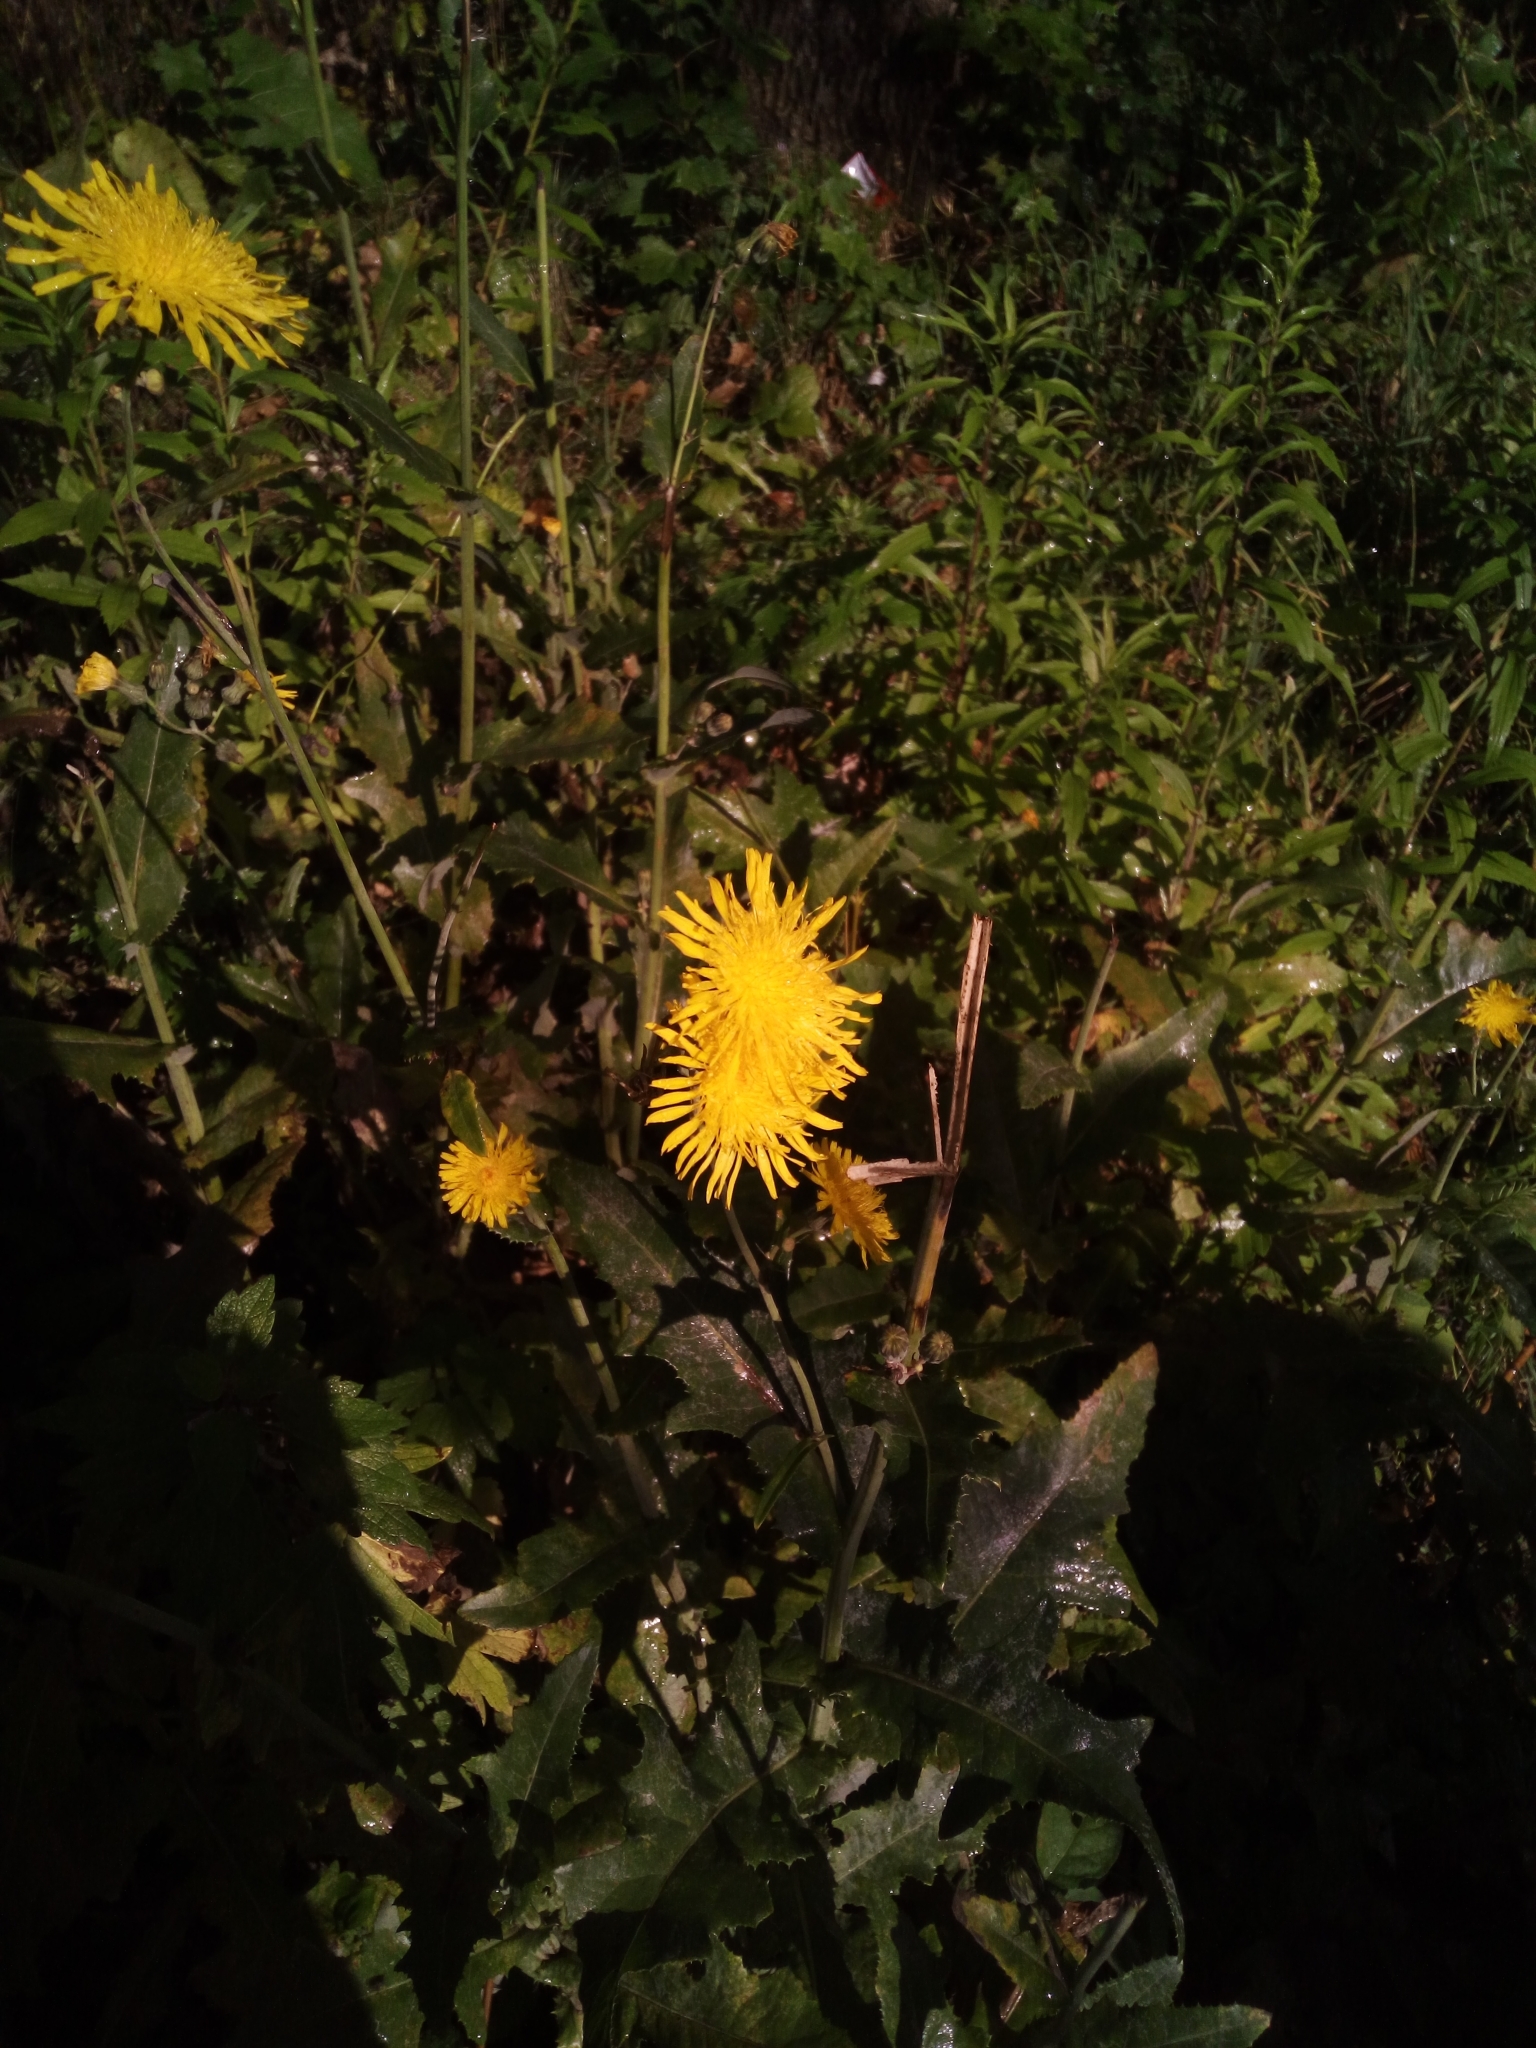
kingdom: Plantae
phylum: Tracheophyta
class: Magnoliopsida
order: Asterales
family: Asteraceae
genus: Sonchus
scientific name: Sonchus arvensis
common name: Perennial sow-thistle
